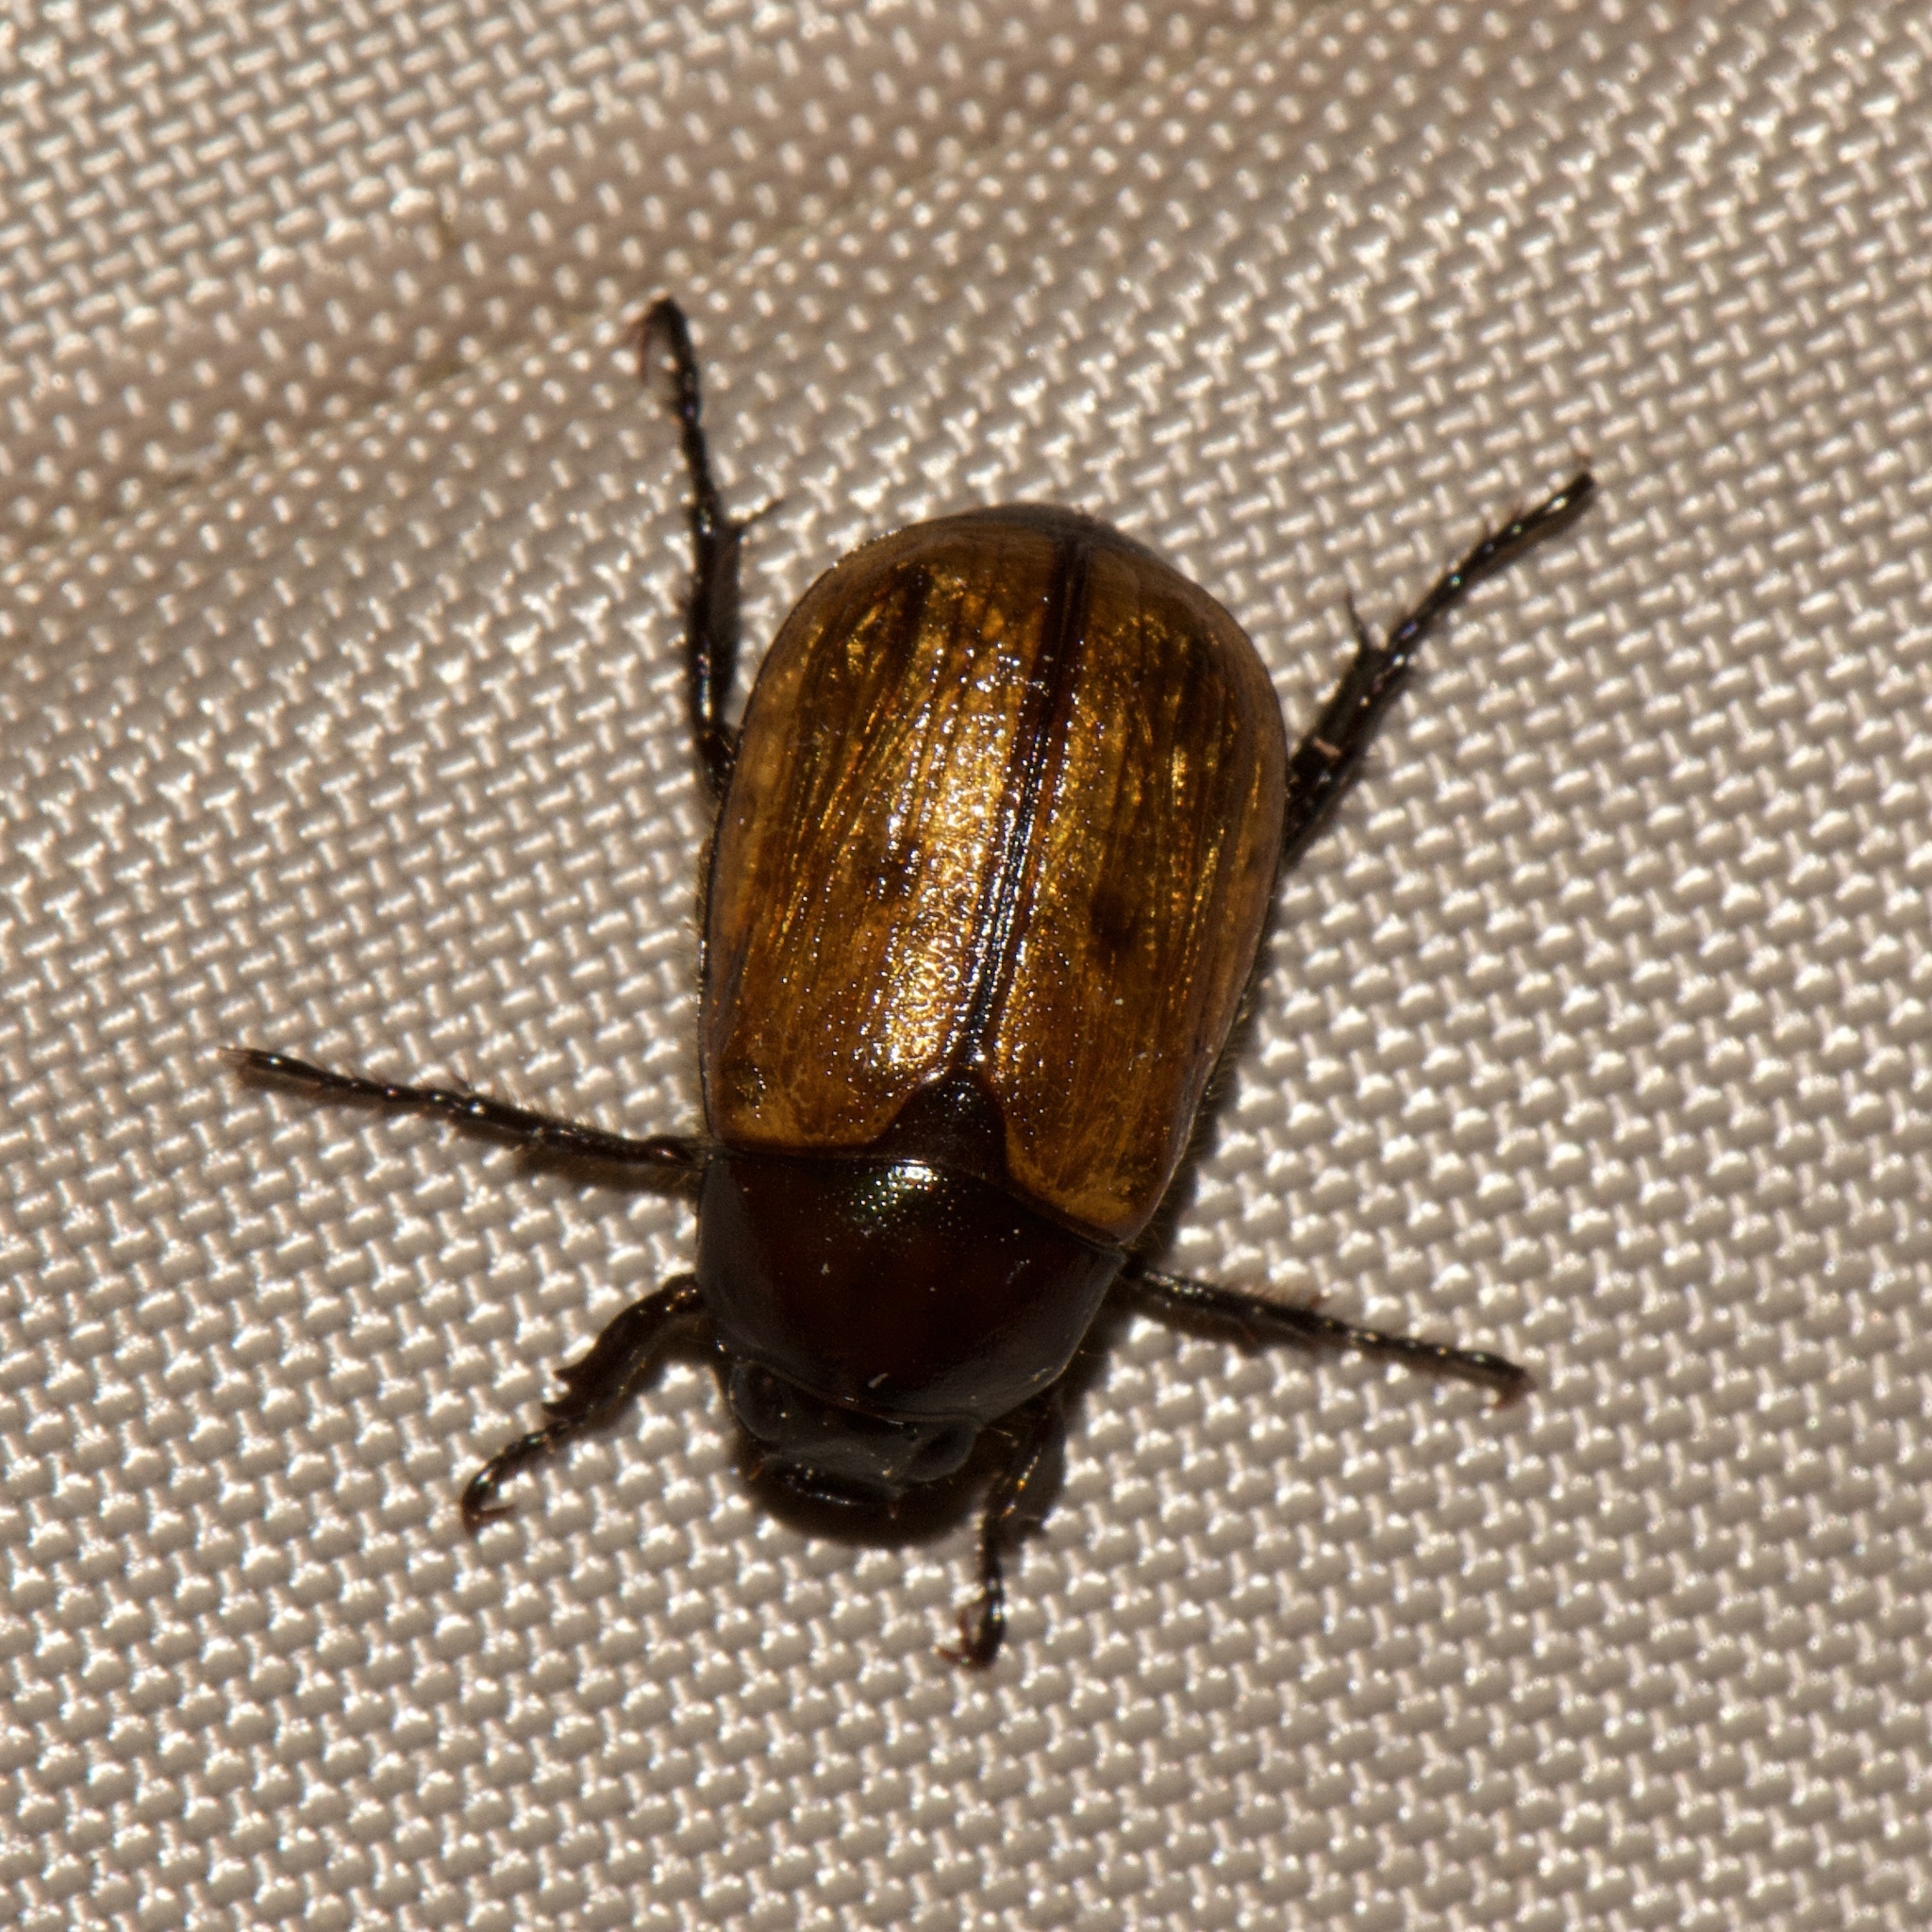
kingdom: Animalia
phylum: Arthropoda
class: Insecta
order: Coleoptera
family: Scarabaeidae
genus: Paranomala
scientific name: Paranomala flavipennis
